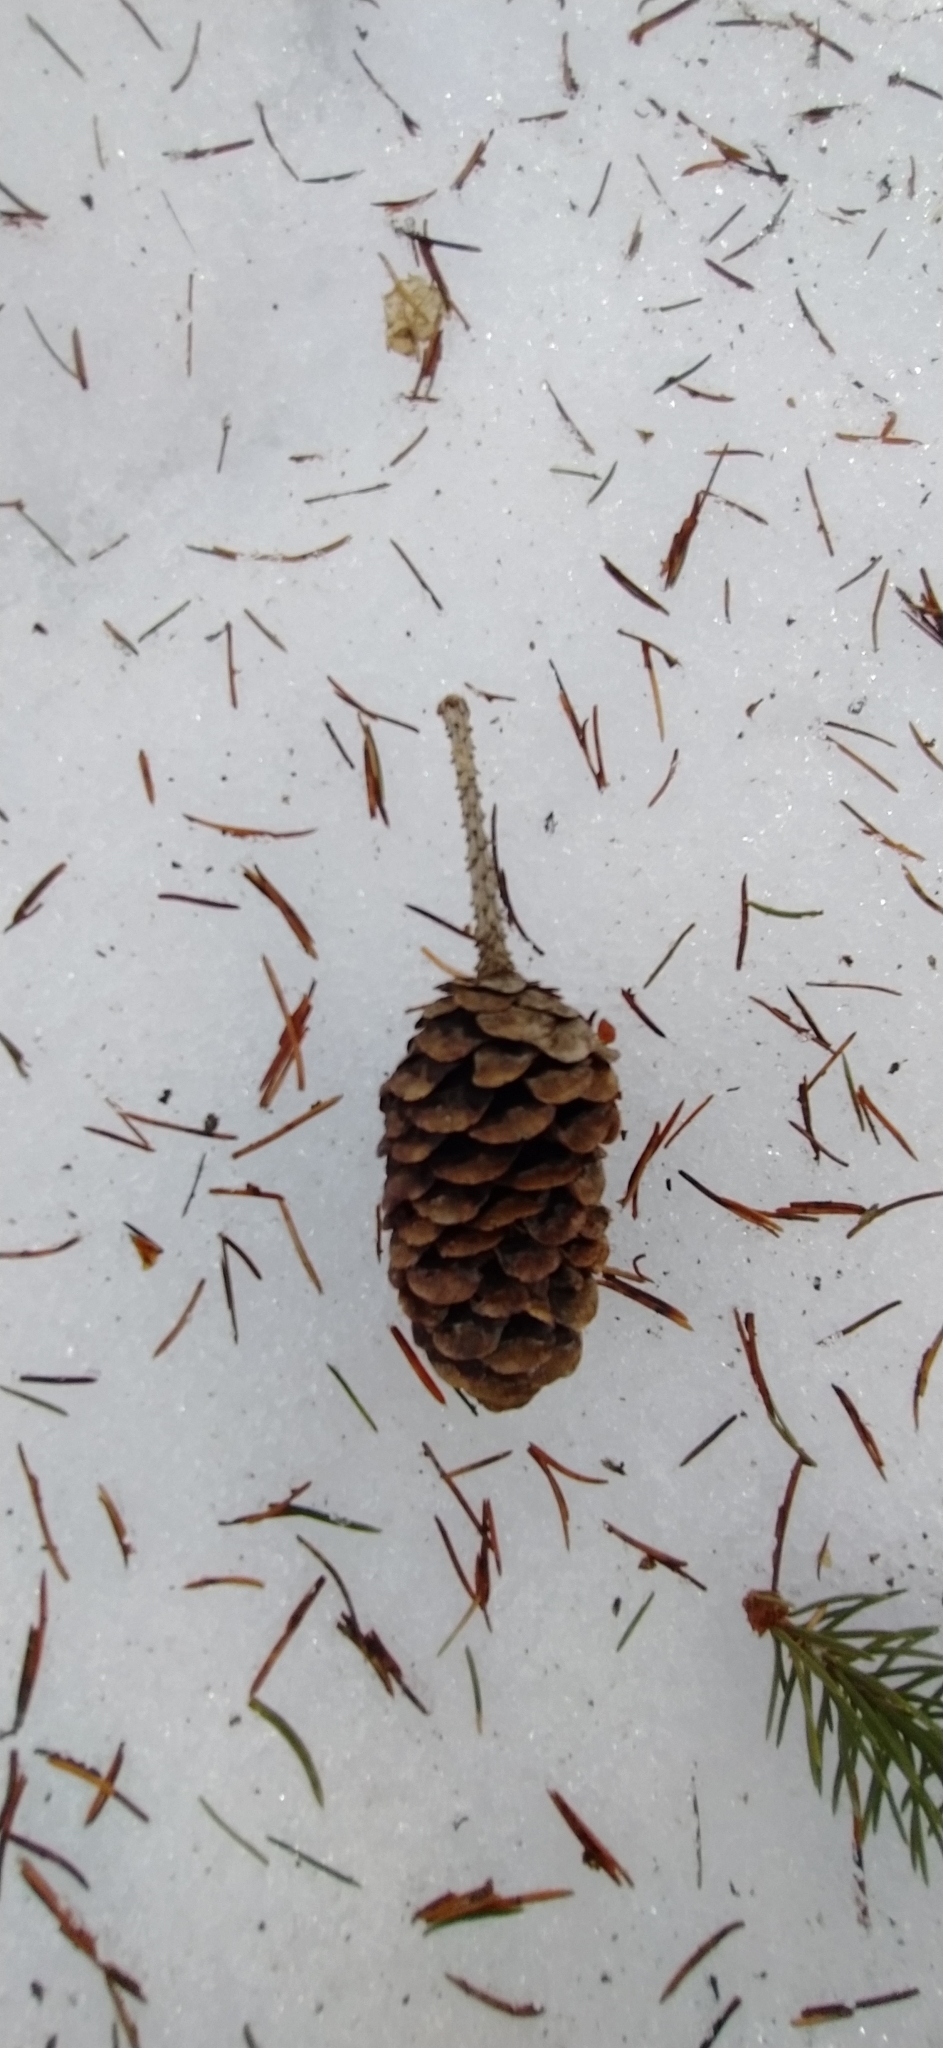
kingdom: Plantae
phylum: Tracheophyta
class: Pinopsida
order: Pinales
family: Pinaceae
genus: Picea
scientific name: Picea obovata
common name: Siberian spruce
